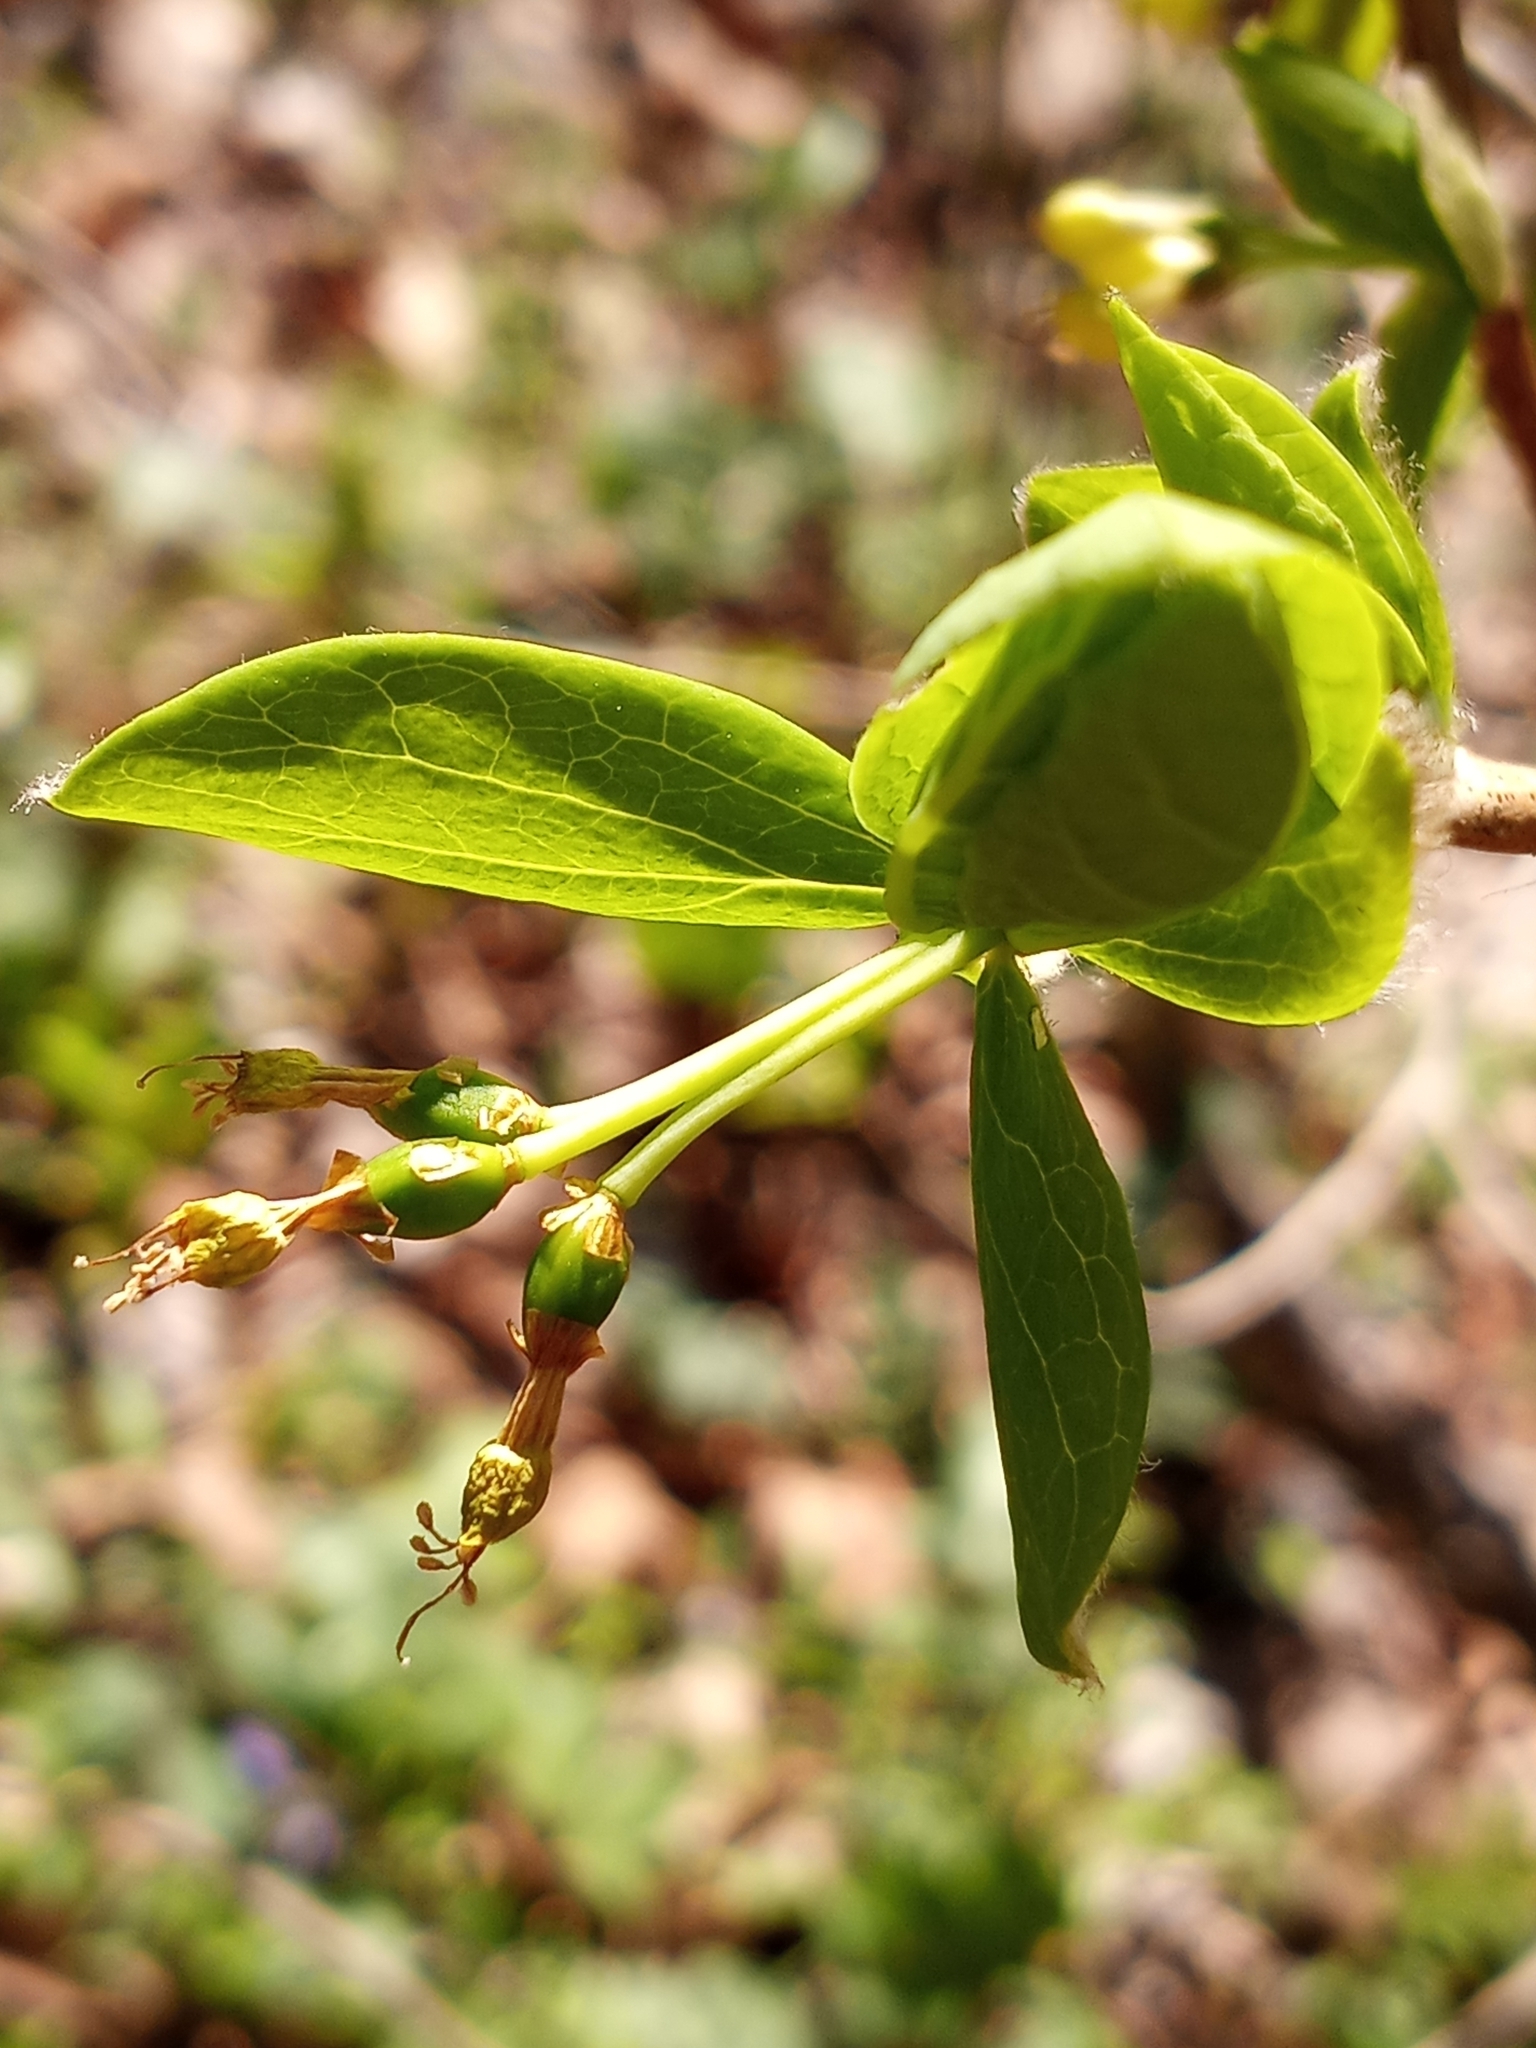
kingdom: Plantae
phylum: Tracheophyta
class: Magnoliopsida
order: Malvales
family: Thymelaeaceae
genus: Dirca
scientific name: Dirca palustris
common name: Leatherwood
